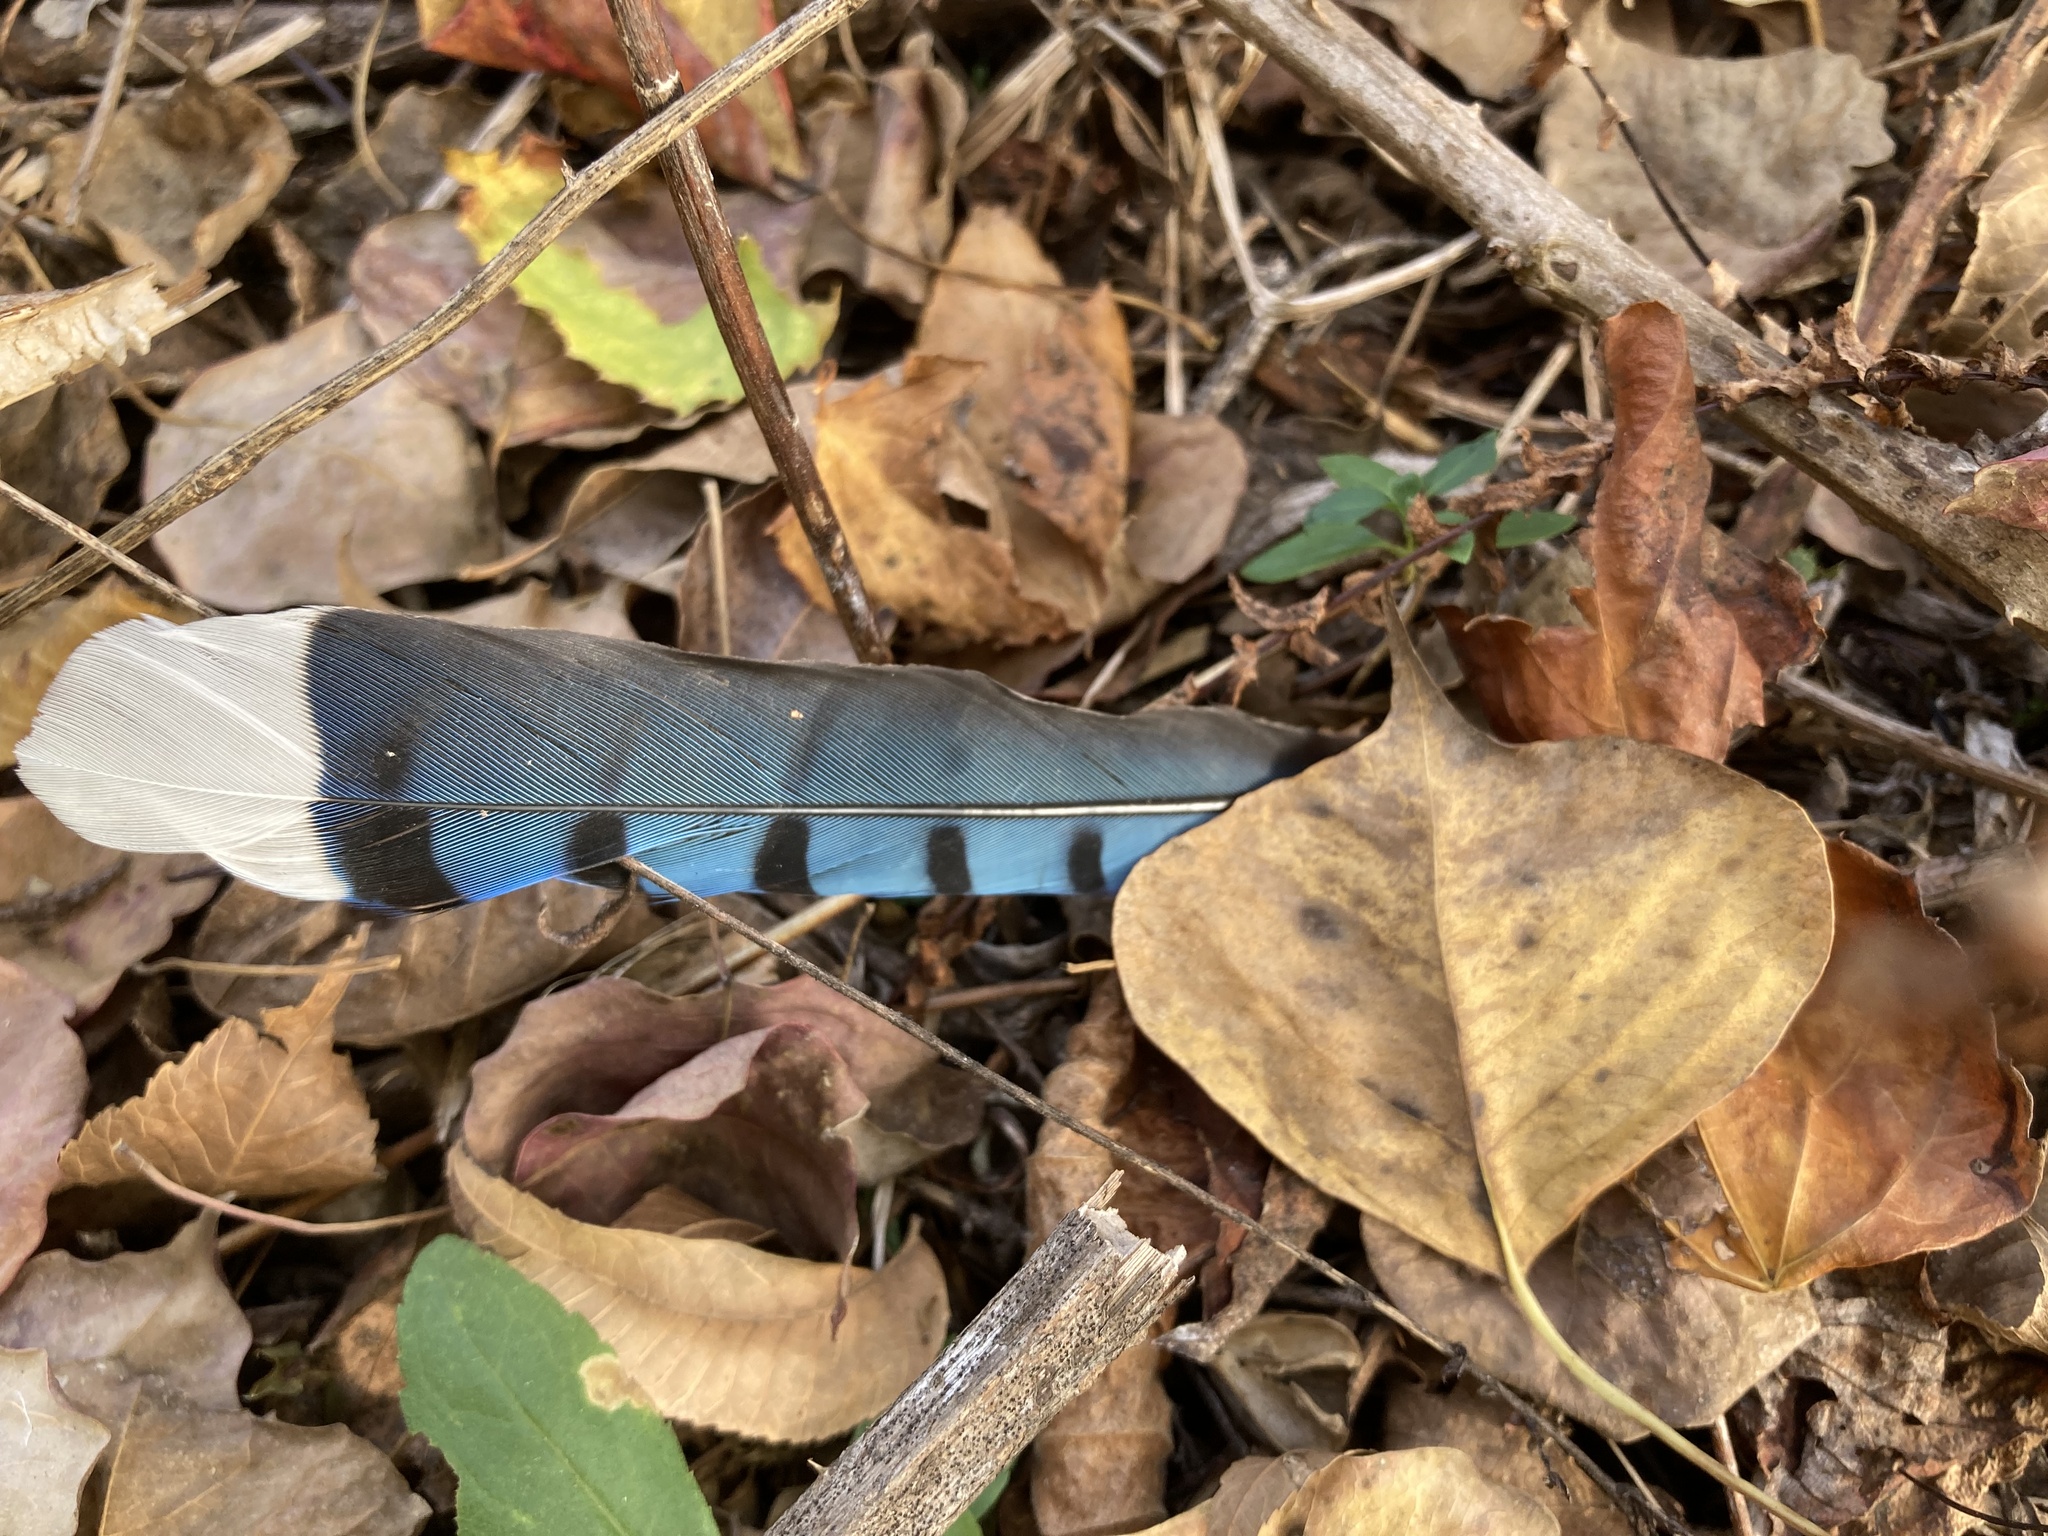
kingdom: Animalia
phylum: Chordata
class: Aves
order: Passeriformes
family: Corvidae
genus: Cyanocitta
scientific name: Cyanocitta cristata
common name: Blue jay
